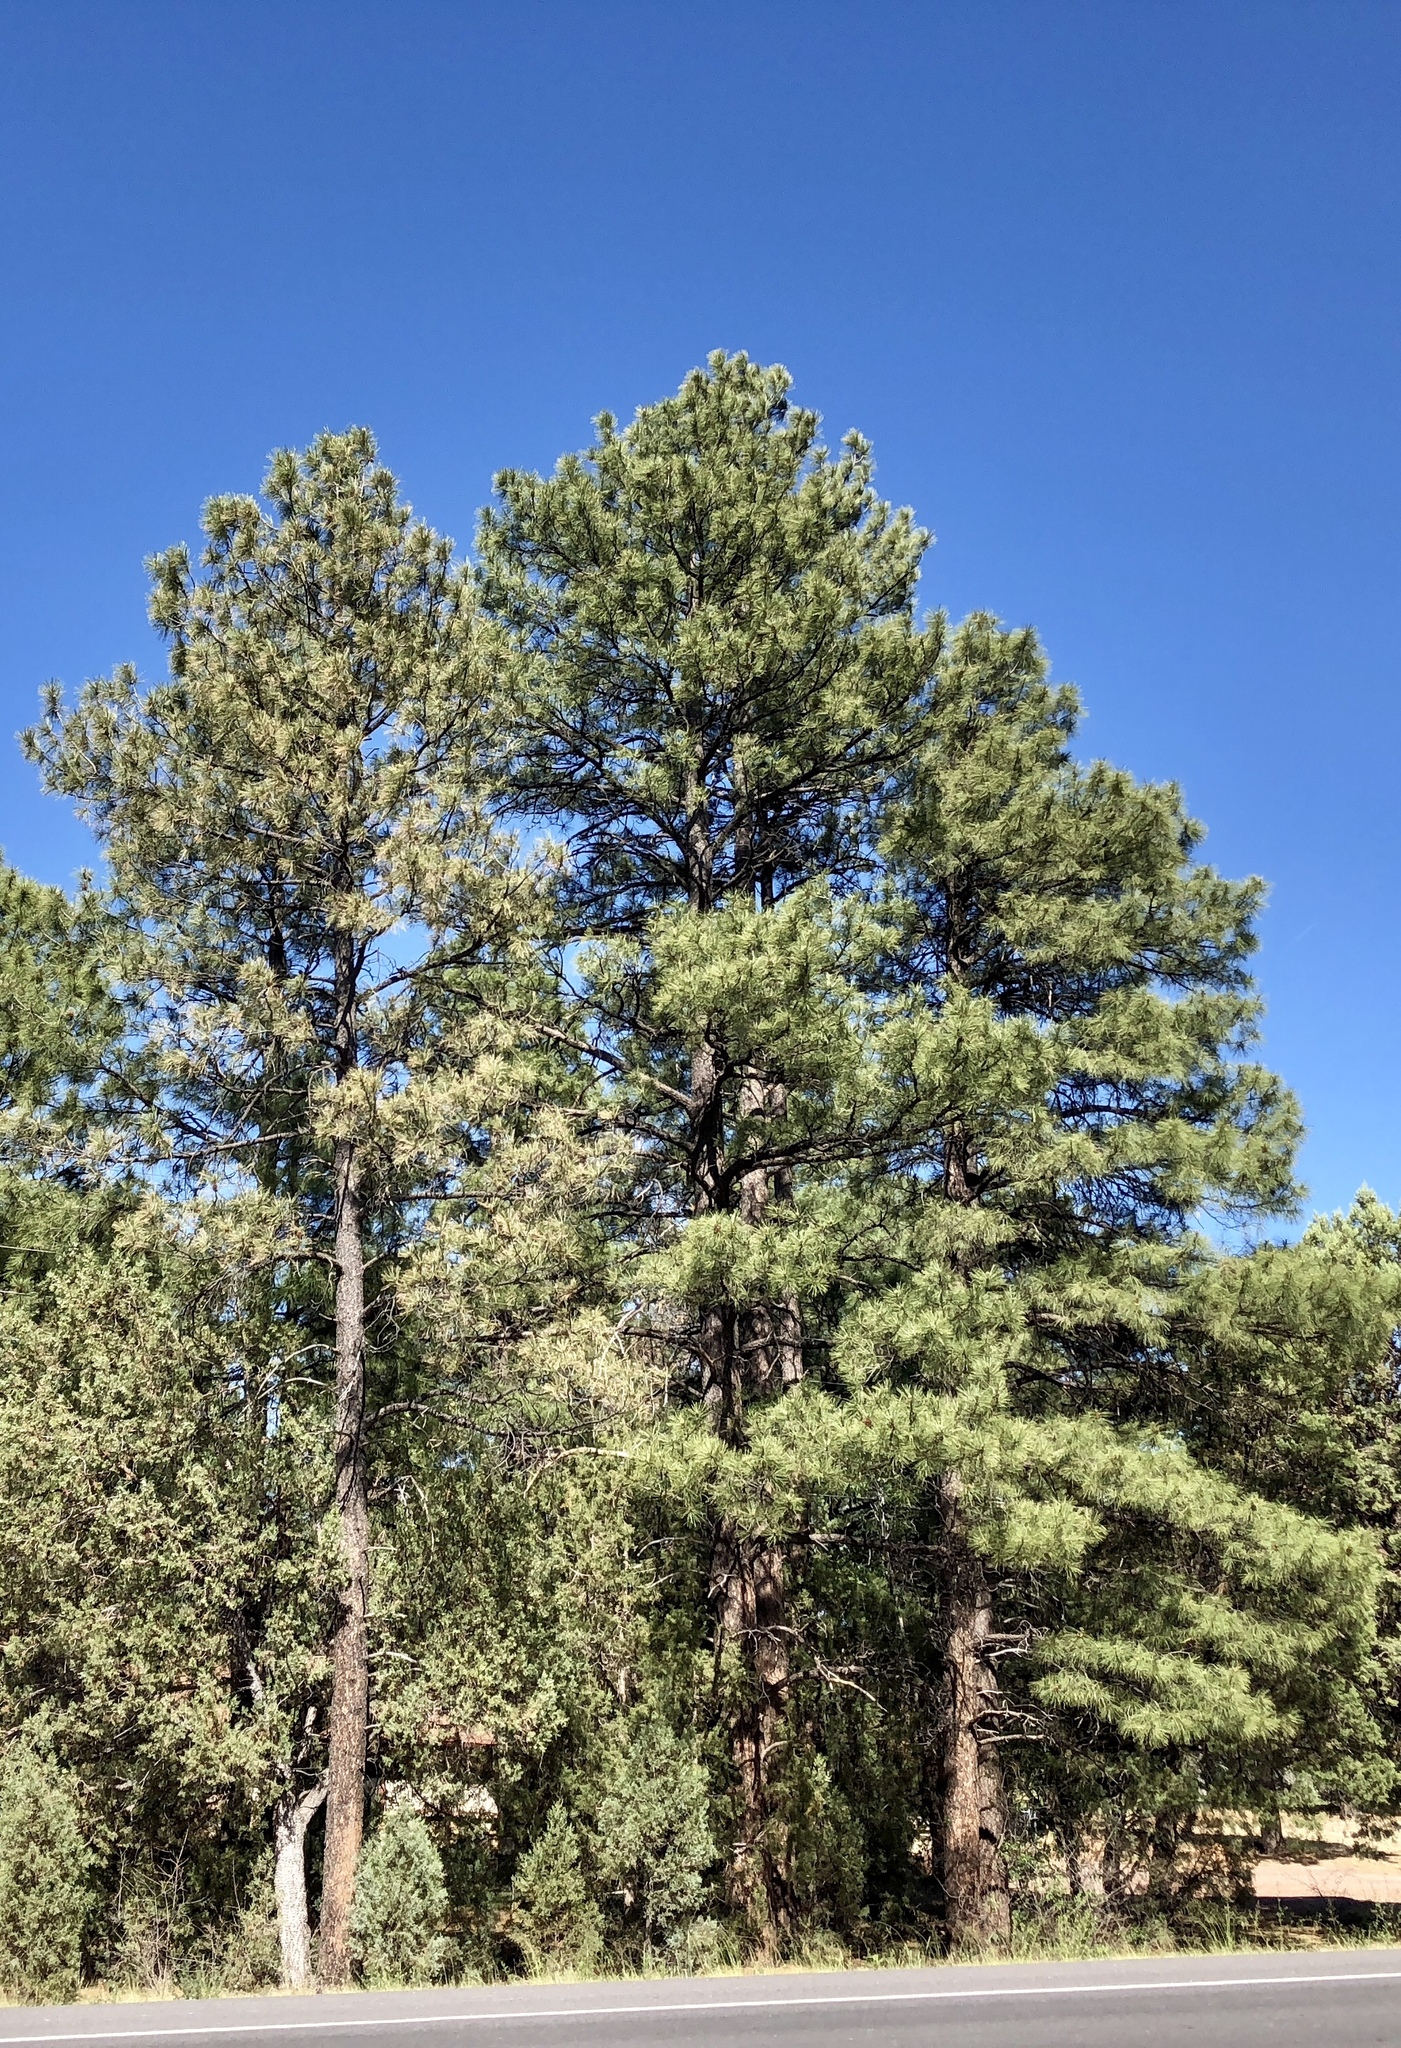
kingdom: Plantae
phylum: Tracheophyta
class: Pinopsida
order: Pinales
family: Pinaceae
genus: Pinus
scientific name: Pinus ponderosa
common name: Western yellow-pine
